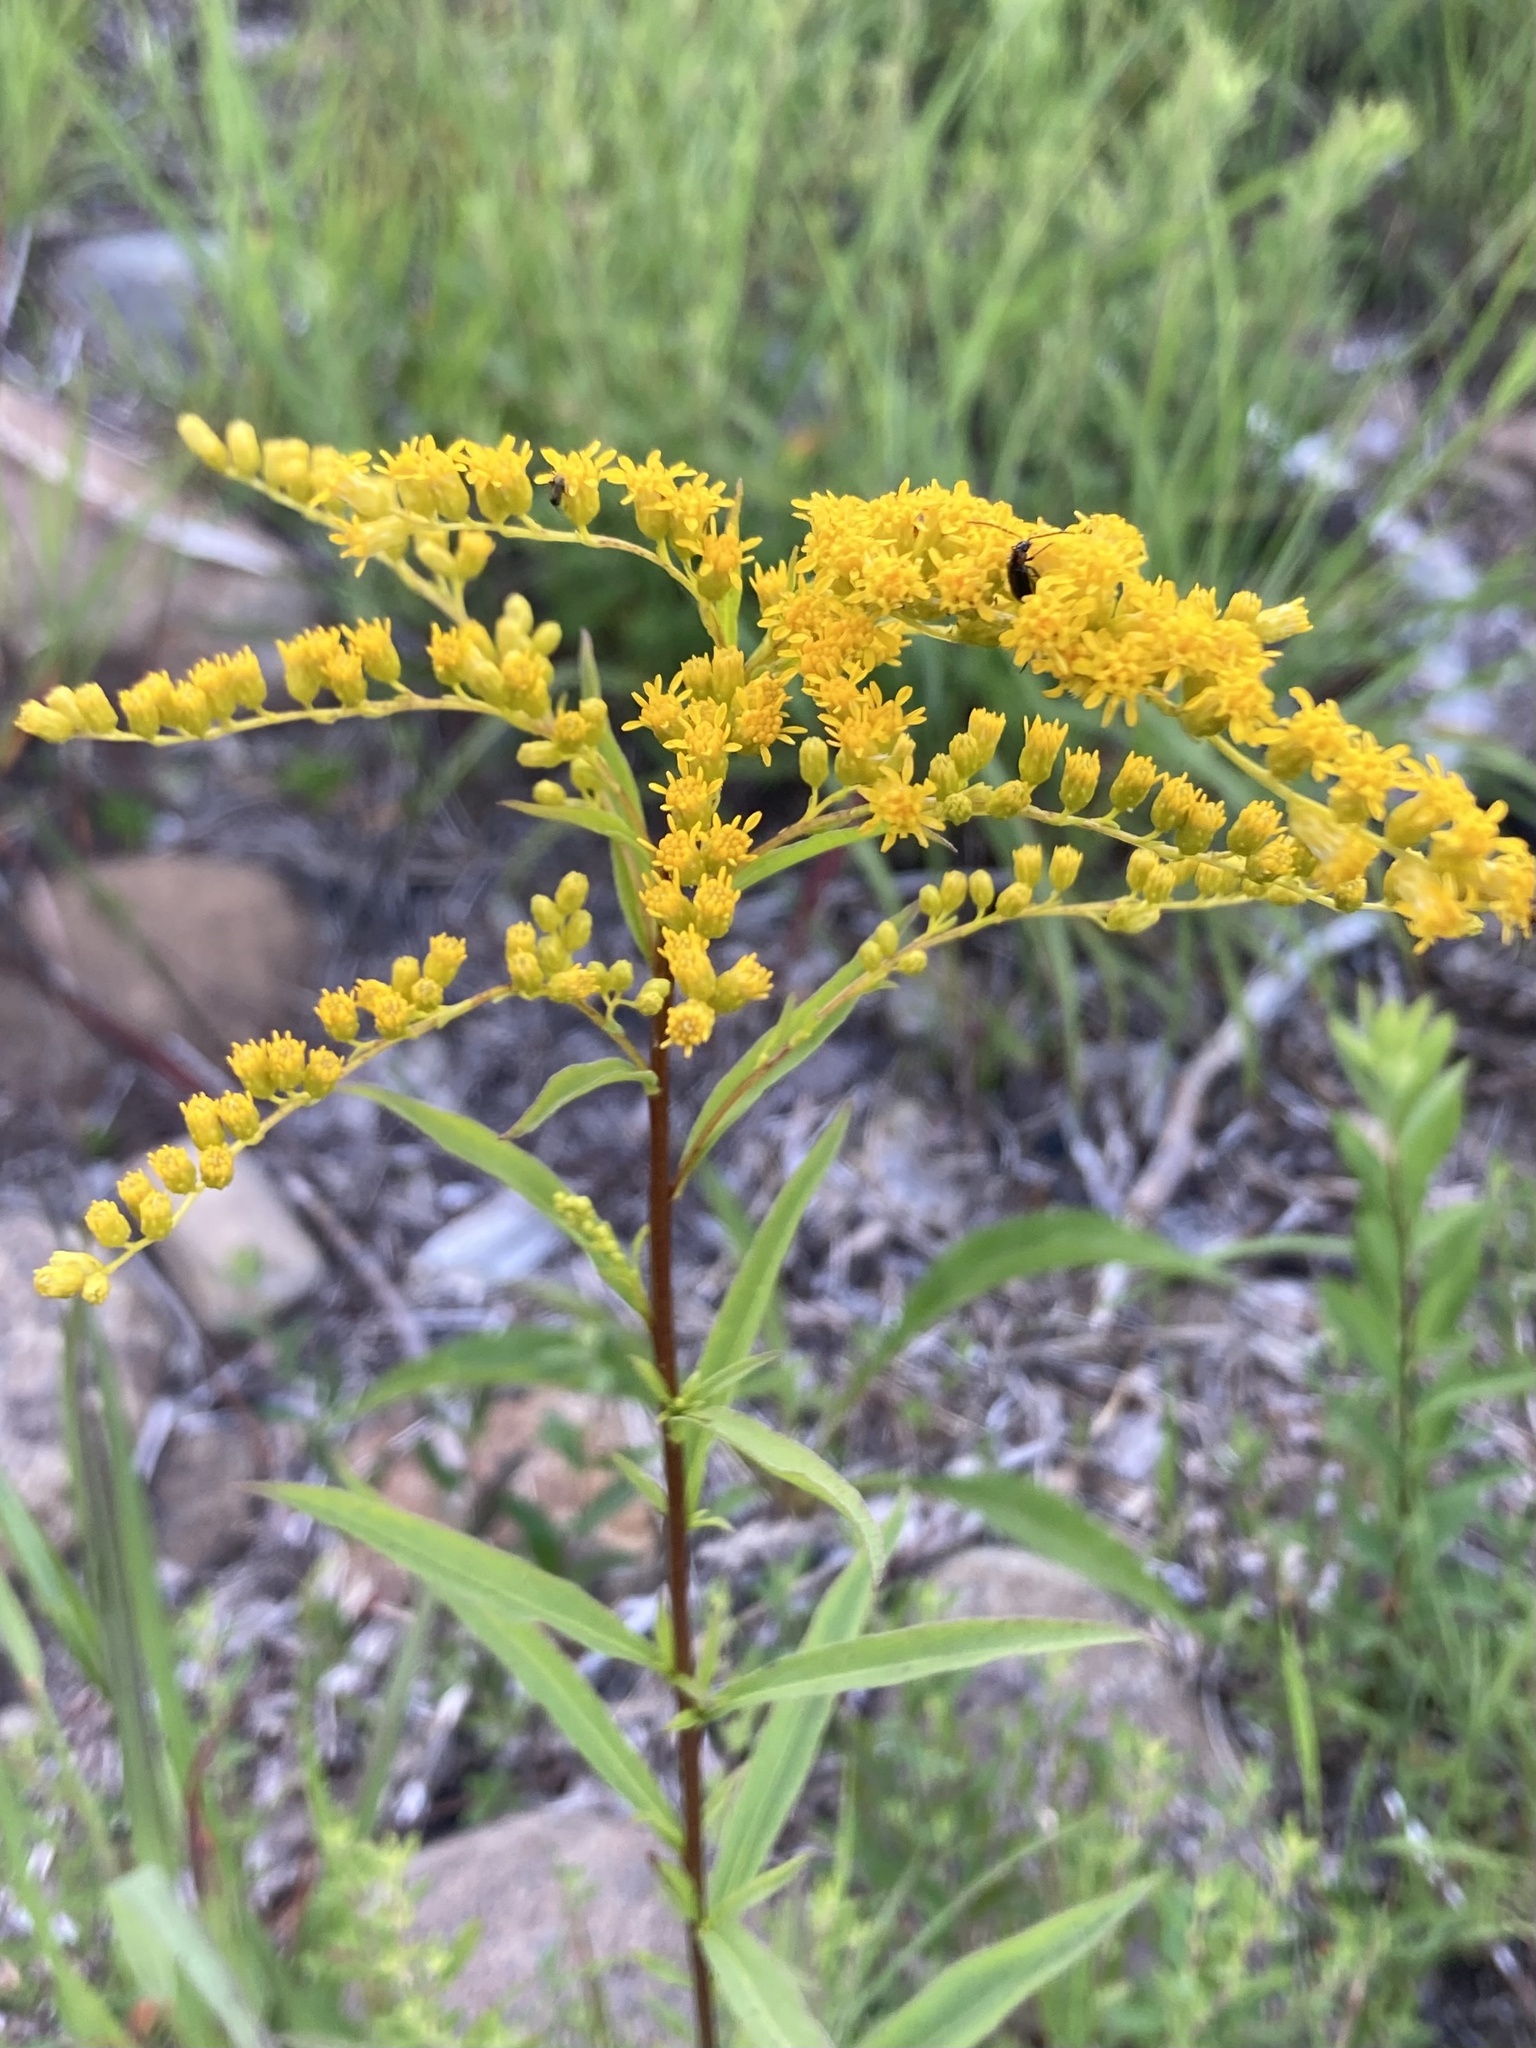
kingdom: Plantae
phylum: Tracheophyta
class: Magnoliopsida
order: Asterales
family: Asteraceae
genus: Solidago
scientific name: Solidago juncea
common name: Early goldenrod
